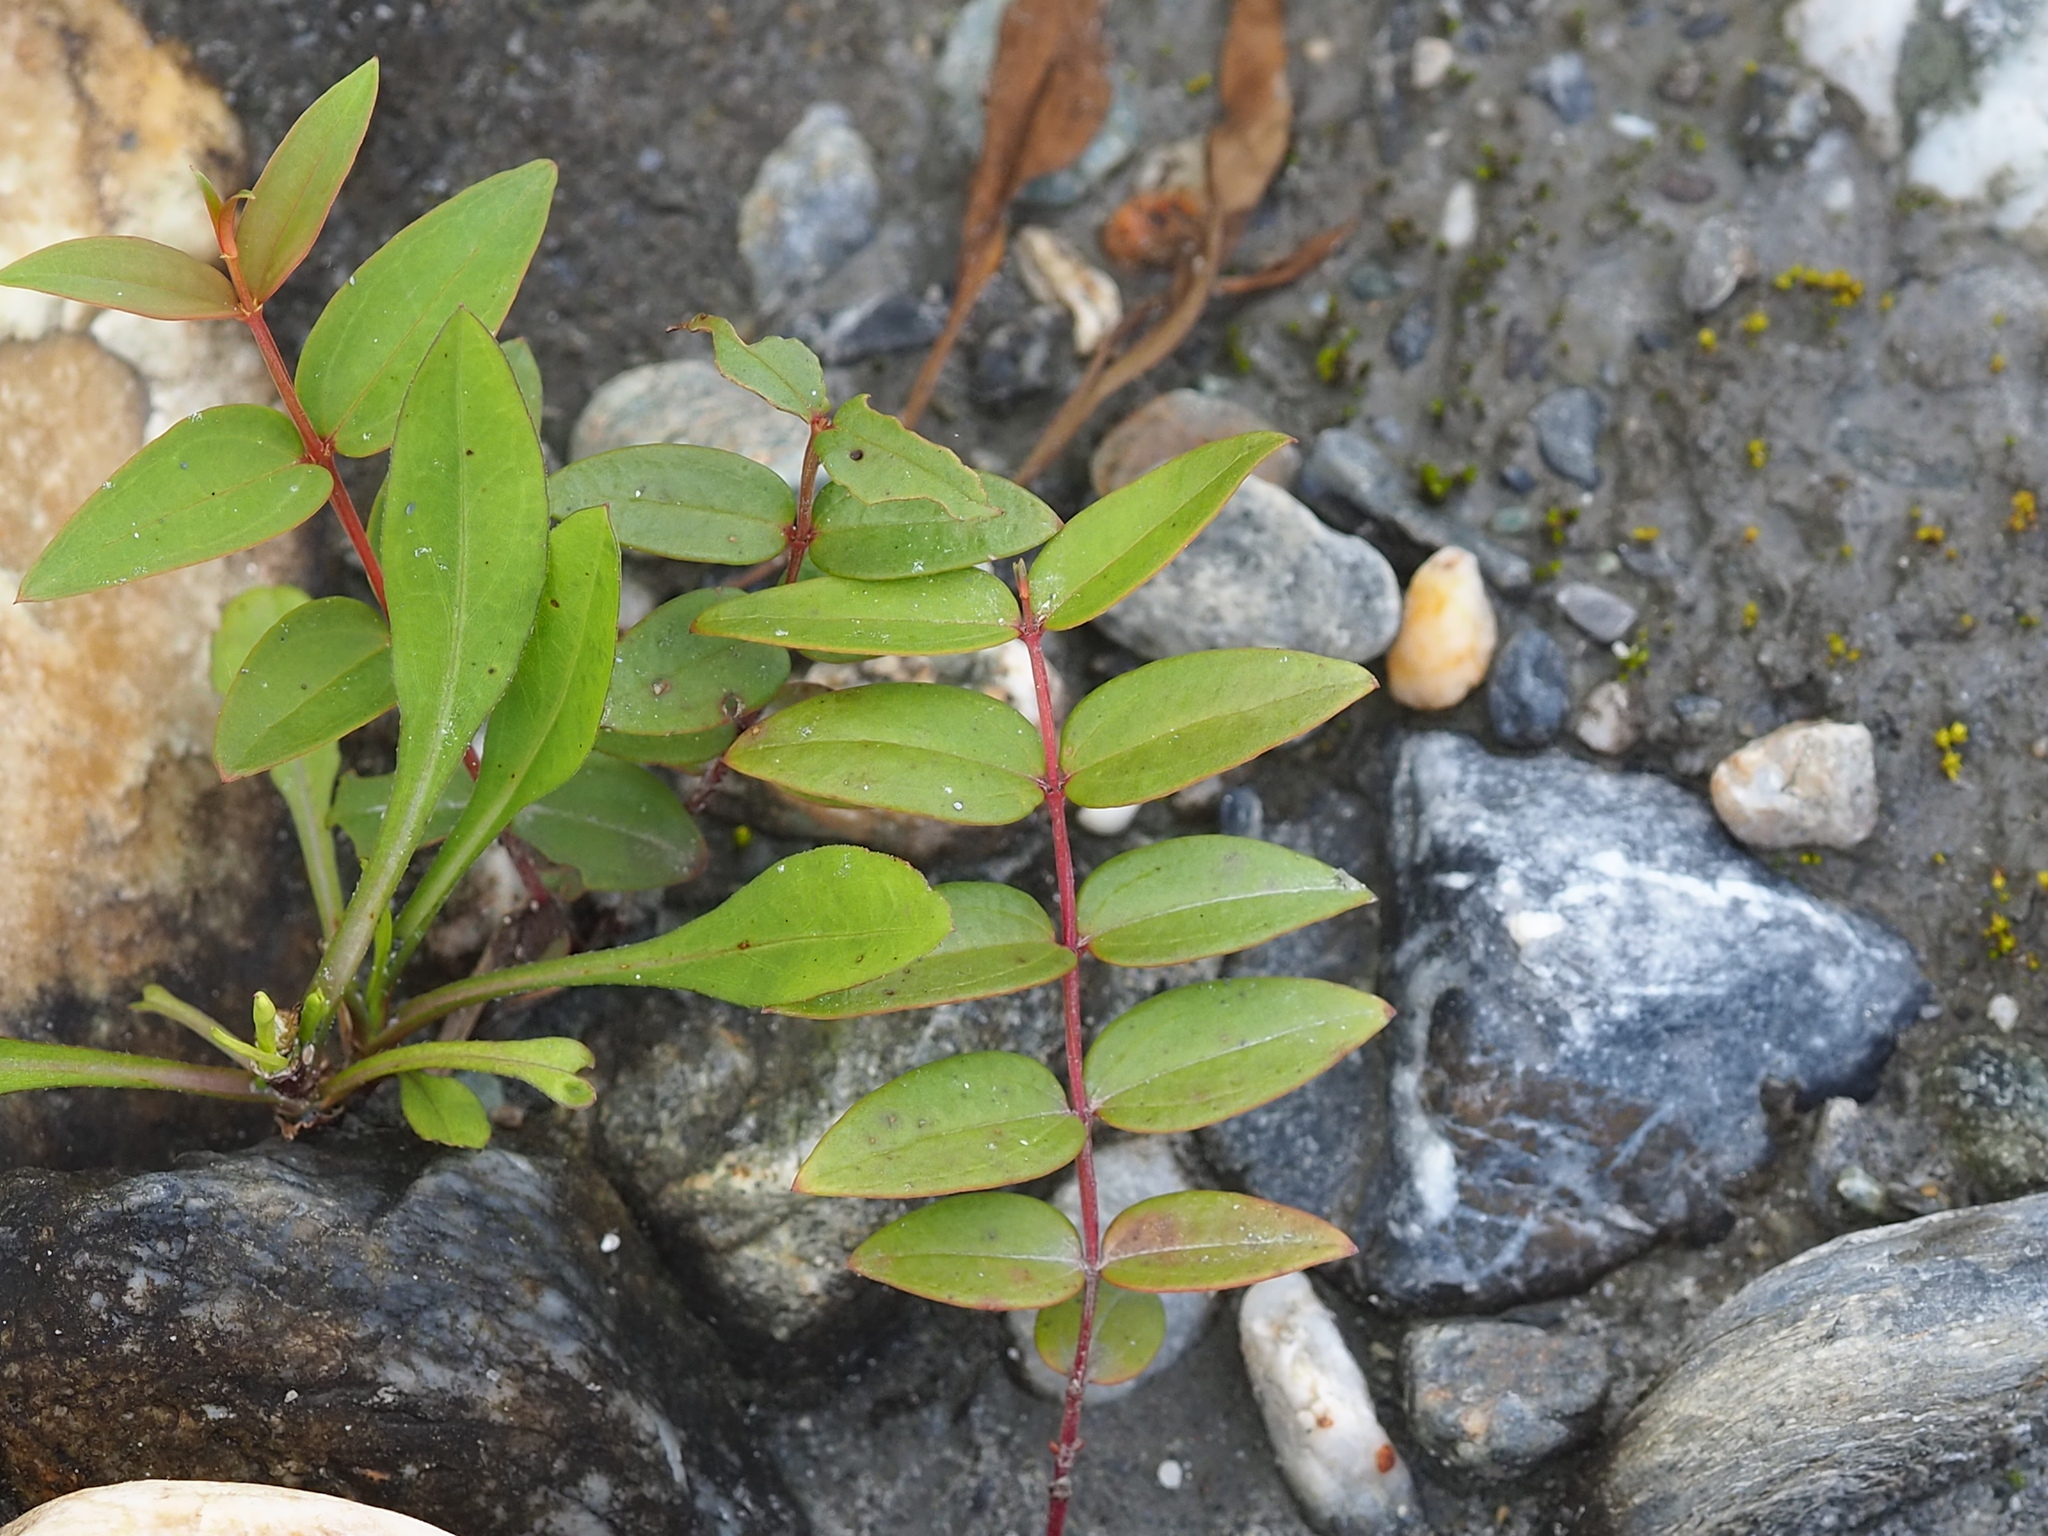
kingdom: Plantae
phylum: Tracheophyta
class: Magnoliopsida
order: Cucurbitales
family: Coriariaceae
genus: Coriaria
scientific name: Coriaria japonica
